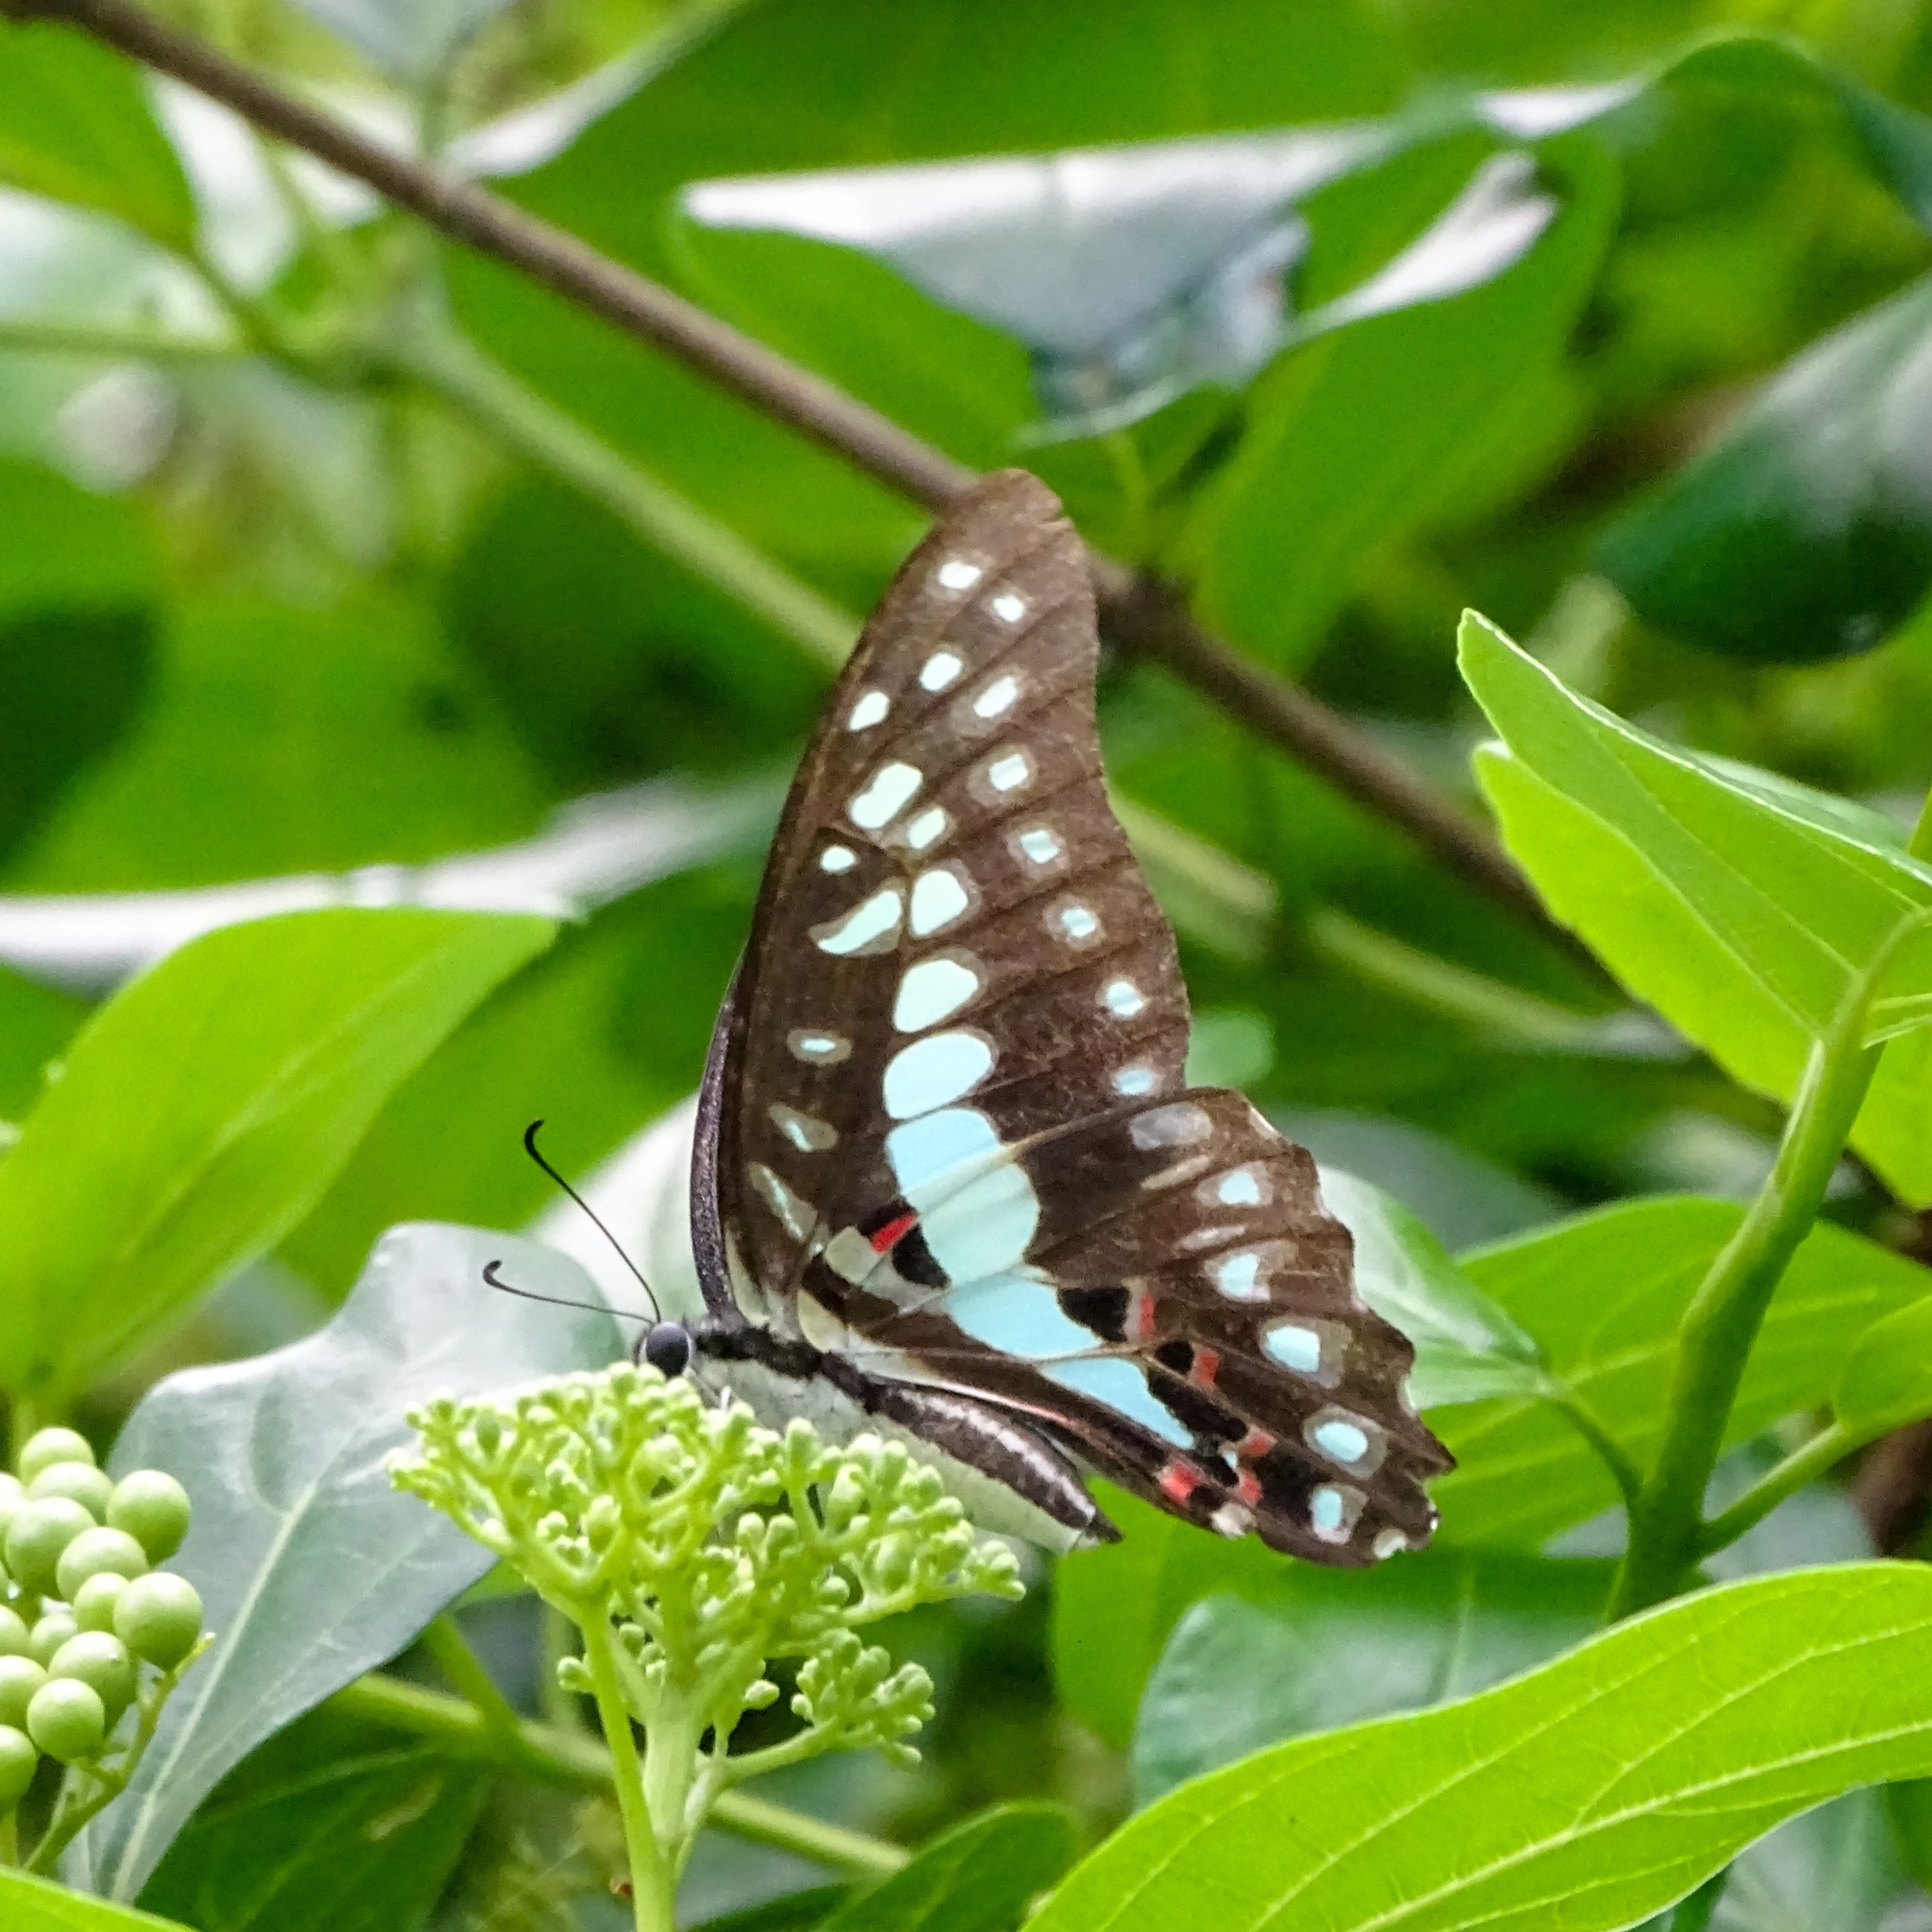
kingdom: Animalia
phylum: Arthropoda
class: Insecta
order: Lepidoptera
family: Papilionidae
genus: Graphium
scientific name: Graphium doson
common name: Common jay
